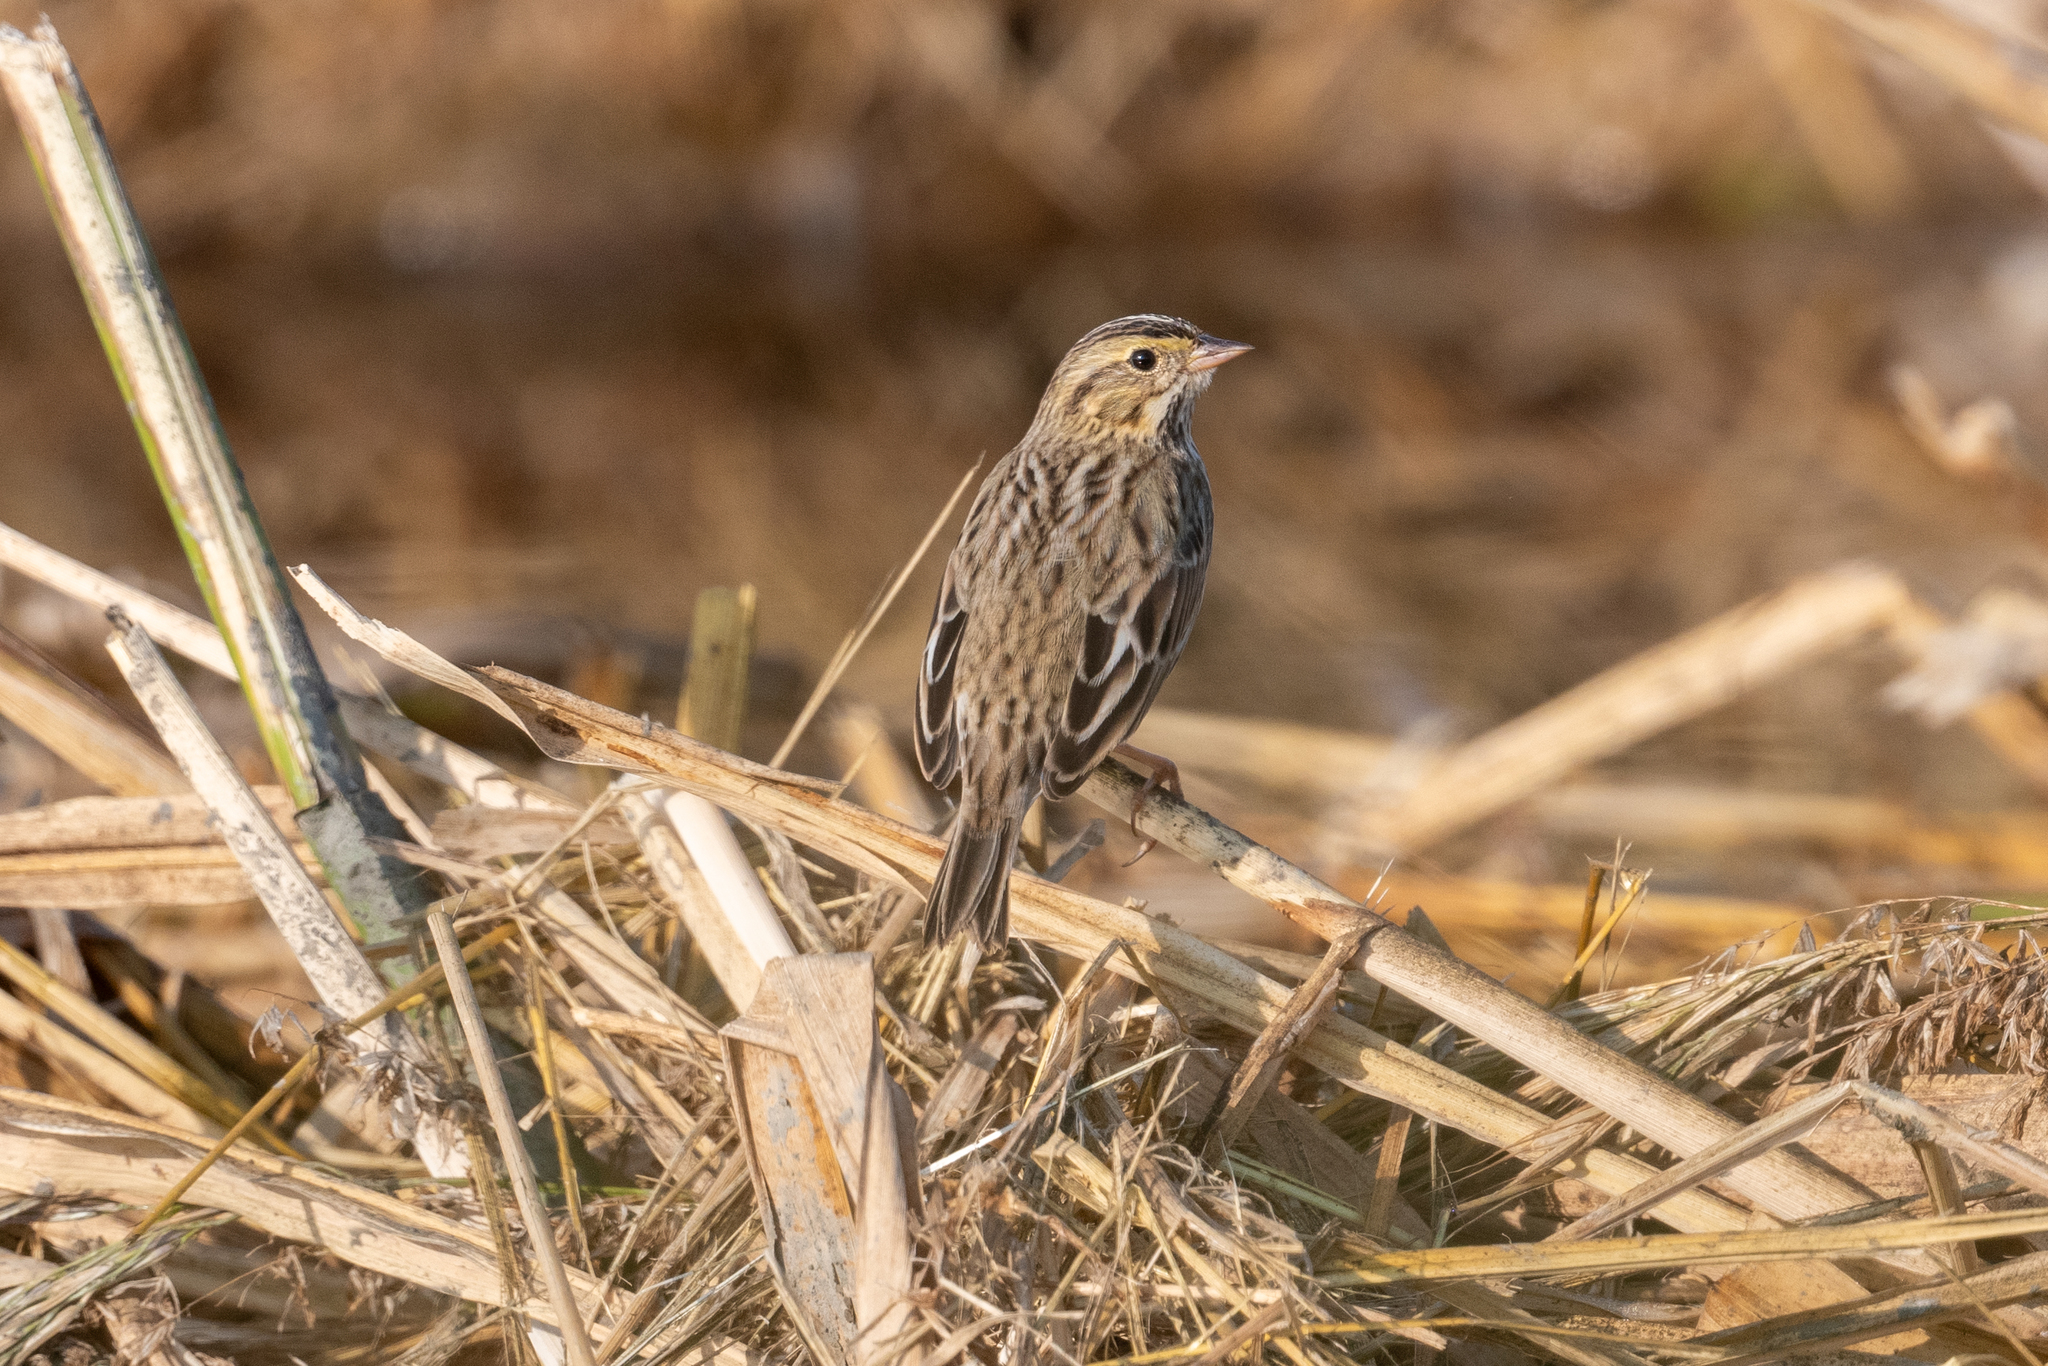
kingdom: Animalia
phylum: Chordata
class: Aves
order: Passeriformes
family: Passerellidae
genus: Passerculus
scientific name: Passerculus sandwichensis
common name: Savannah sparrow
